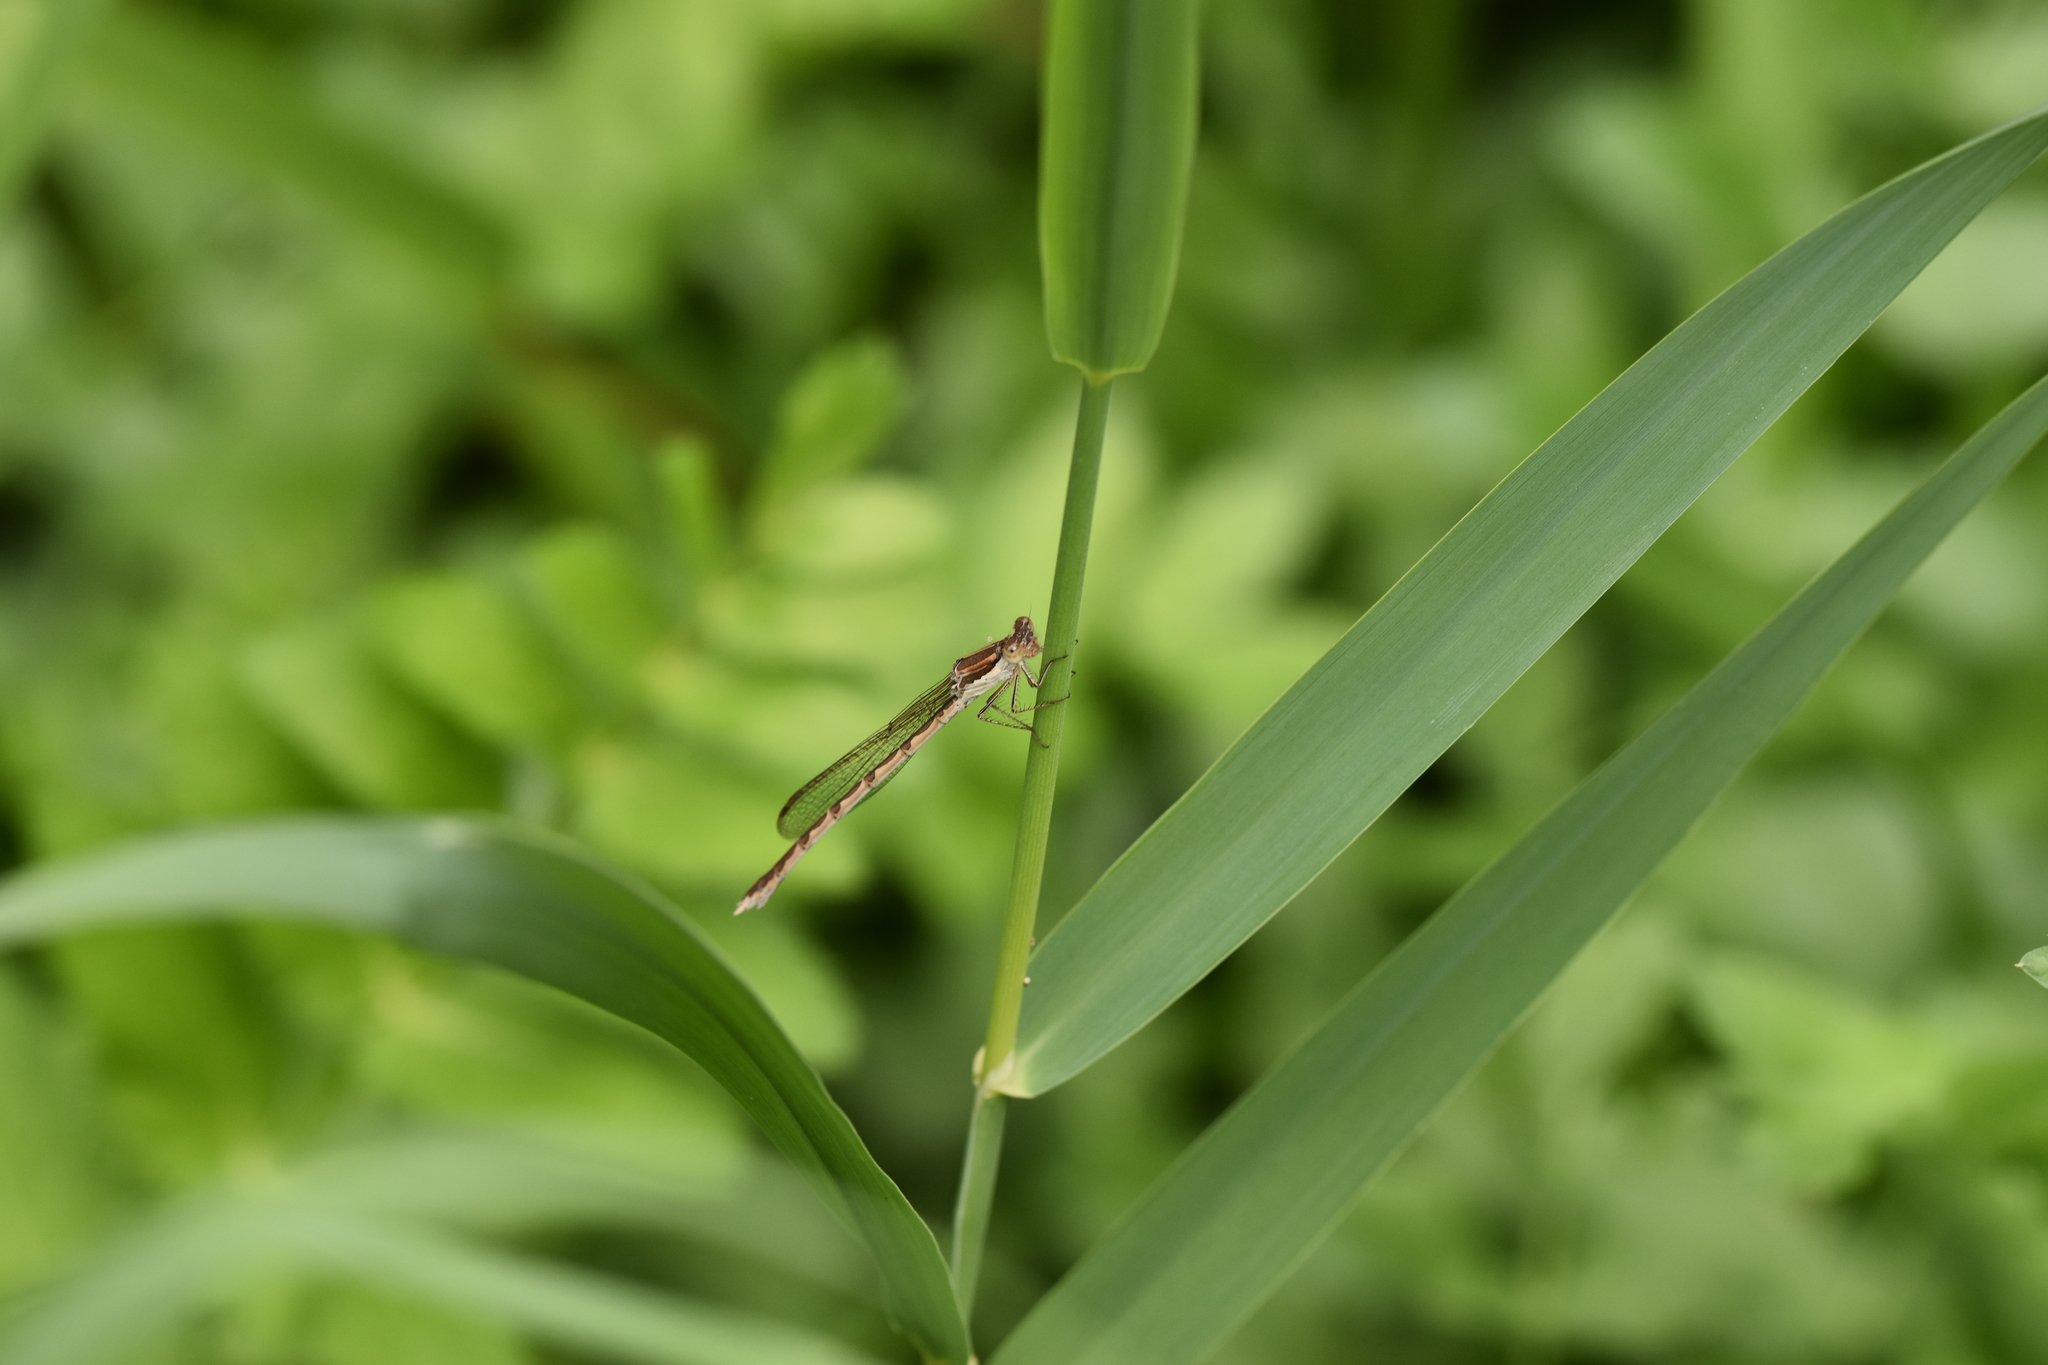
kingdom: Animalia
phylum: Arthropoda
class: Insecta
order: Odonata
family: Lestidae
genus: Sympecma
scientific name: Sympecma fusca
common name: Common winter damsel
